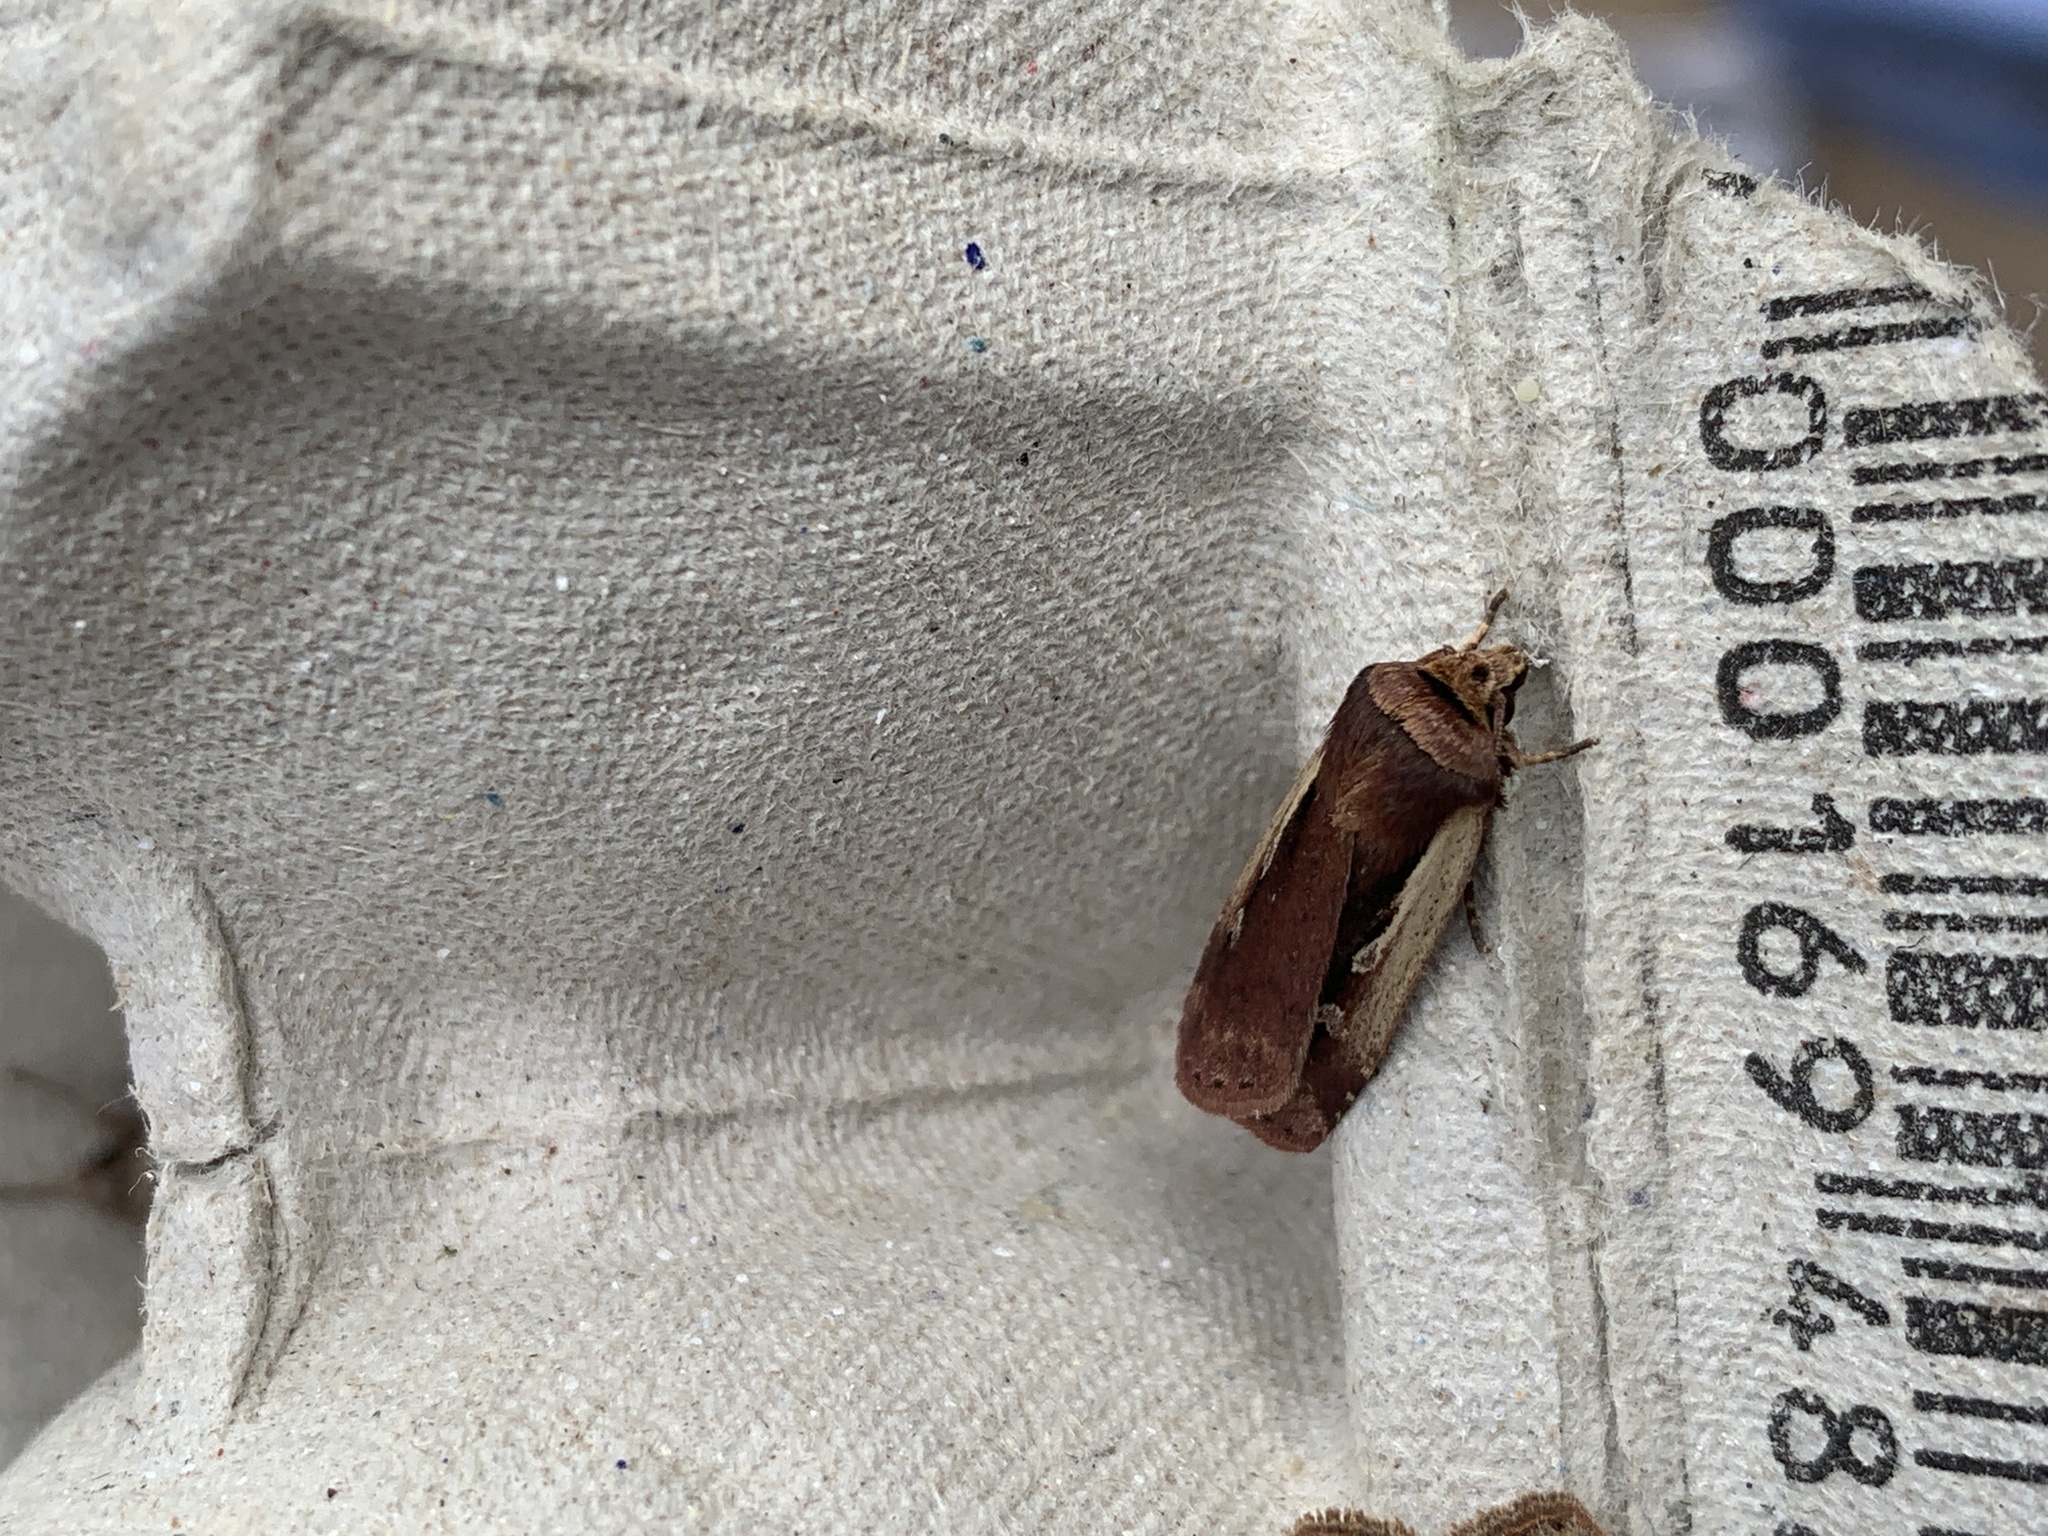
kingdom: Animalia
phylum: Arthropoda
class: Insecta
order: Lepidoptera
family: Noctuidae
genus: Ochropleura
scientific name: Ochropleura plecta
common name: Flame shoulder
